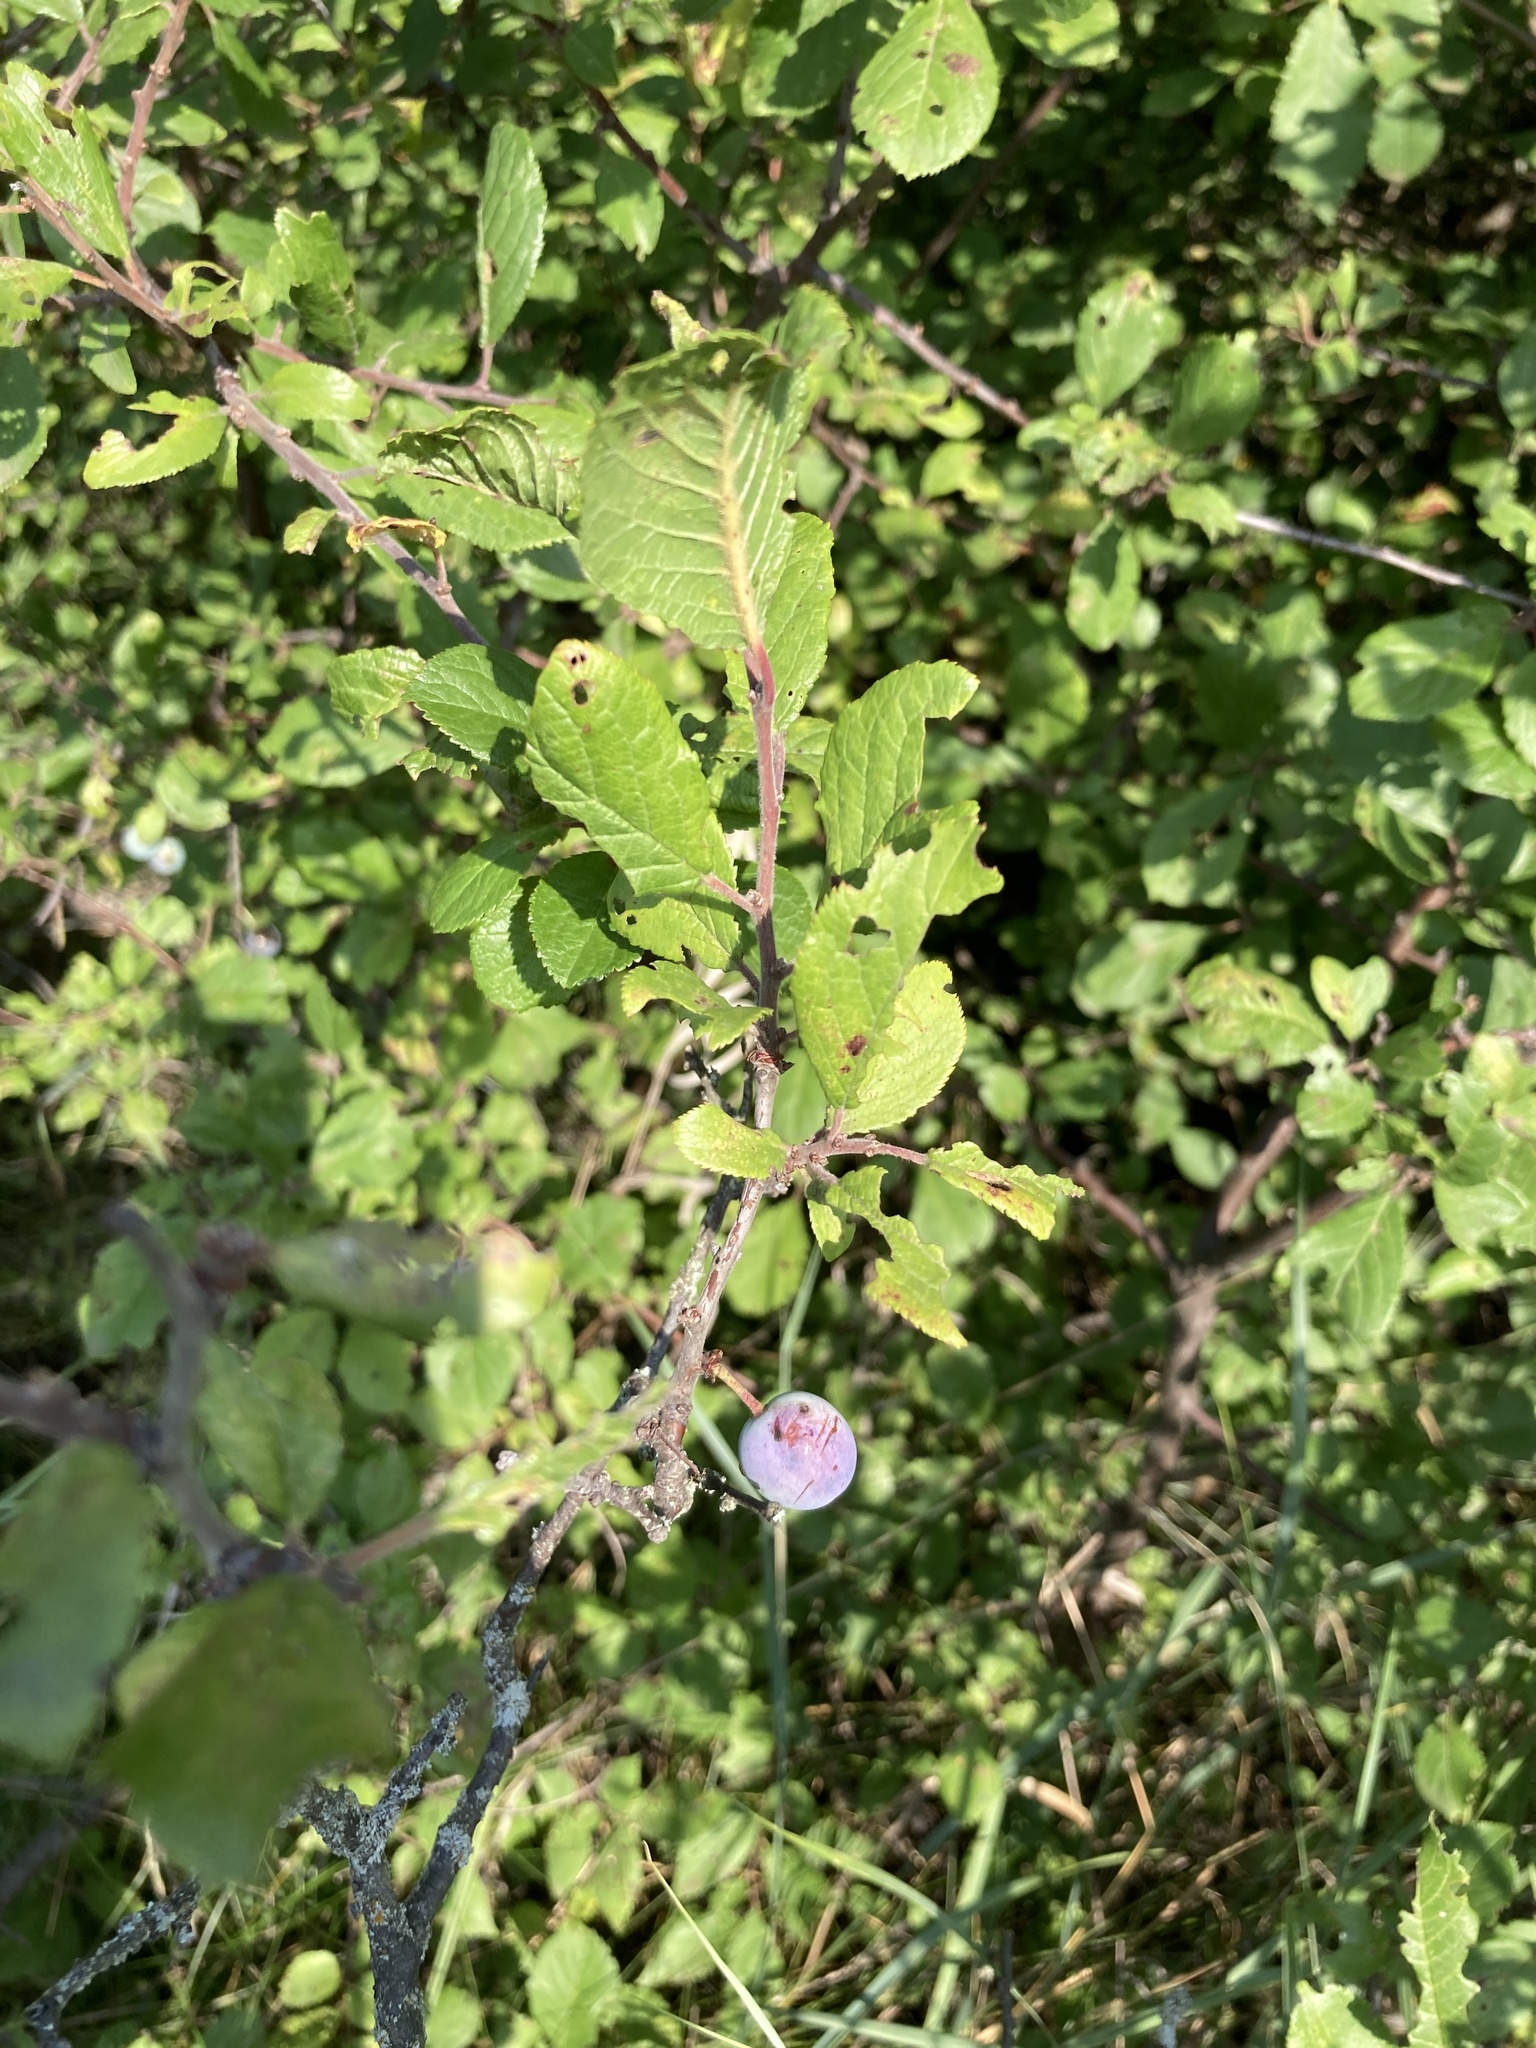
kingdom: Plantae
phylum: Tracheophyta
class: Magnoliopsida
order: Rosales
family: Rosaceae
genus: Prunus
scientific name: Prunus spinosa
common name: Blackthorn
